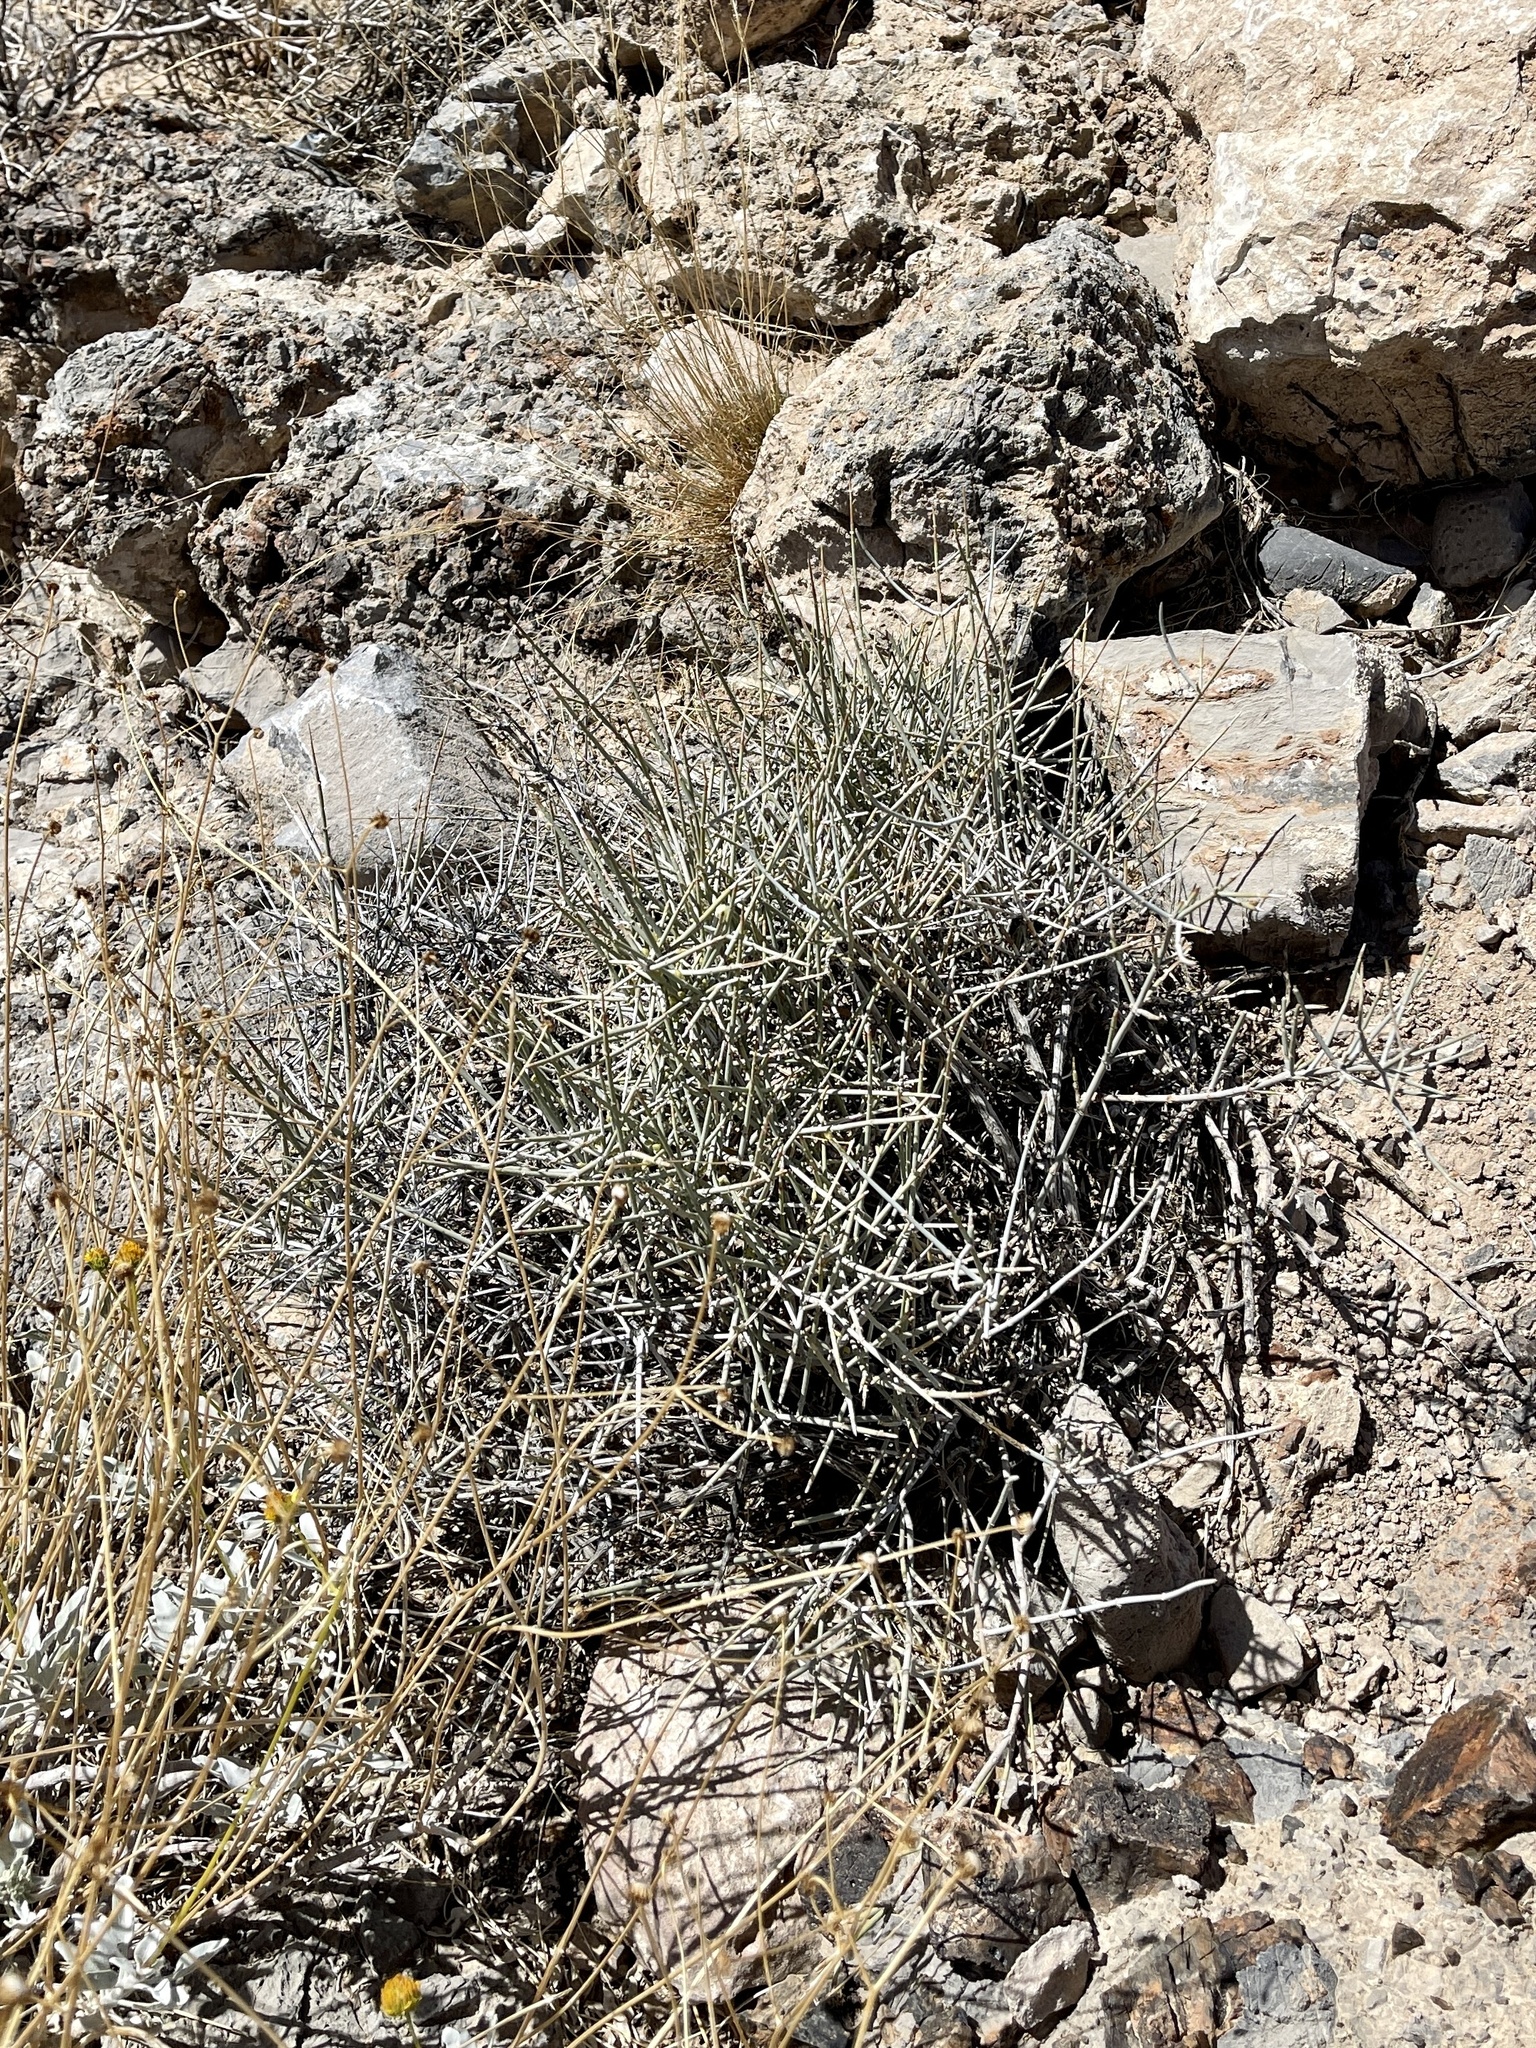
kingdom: Plantae
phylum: Tracheophyta
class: Gnetopsida
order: Ephedrales
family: Ephedraceae
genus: Ephedra
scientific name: Ephedra nevadensis
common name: Gray ephedra
